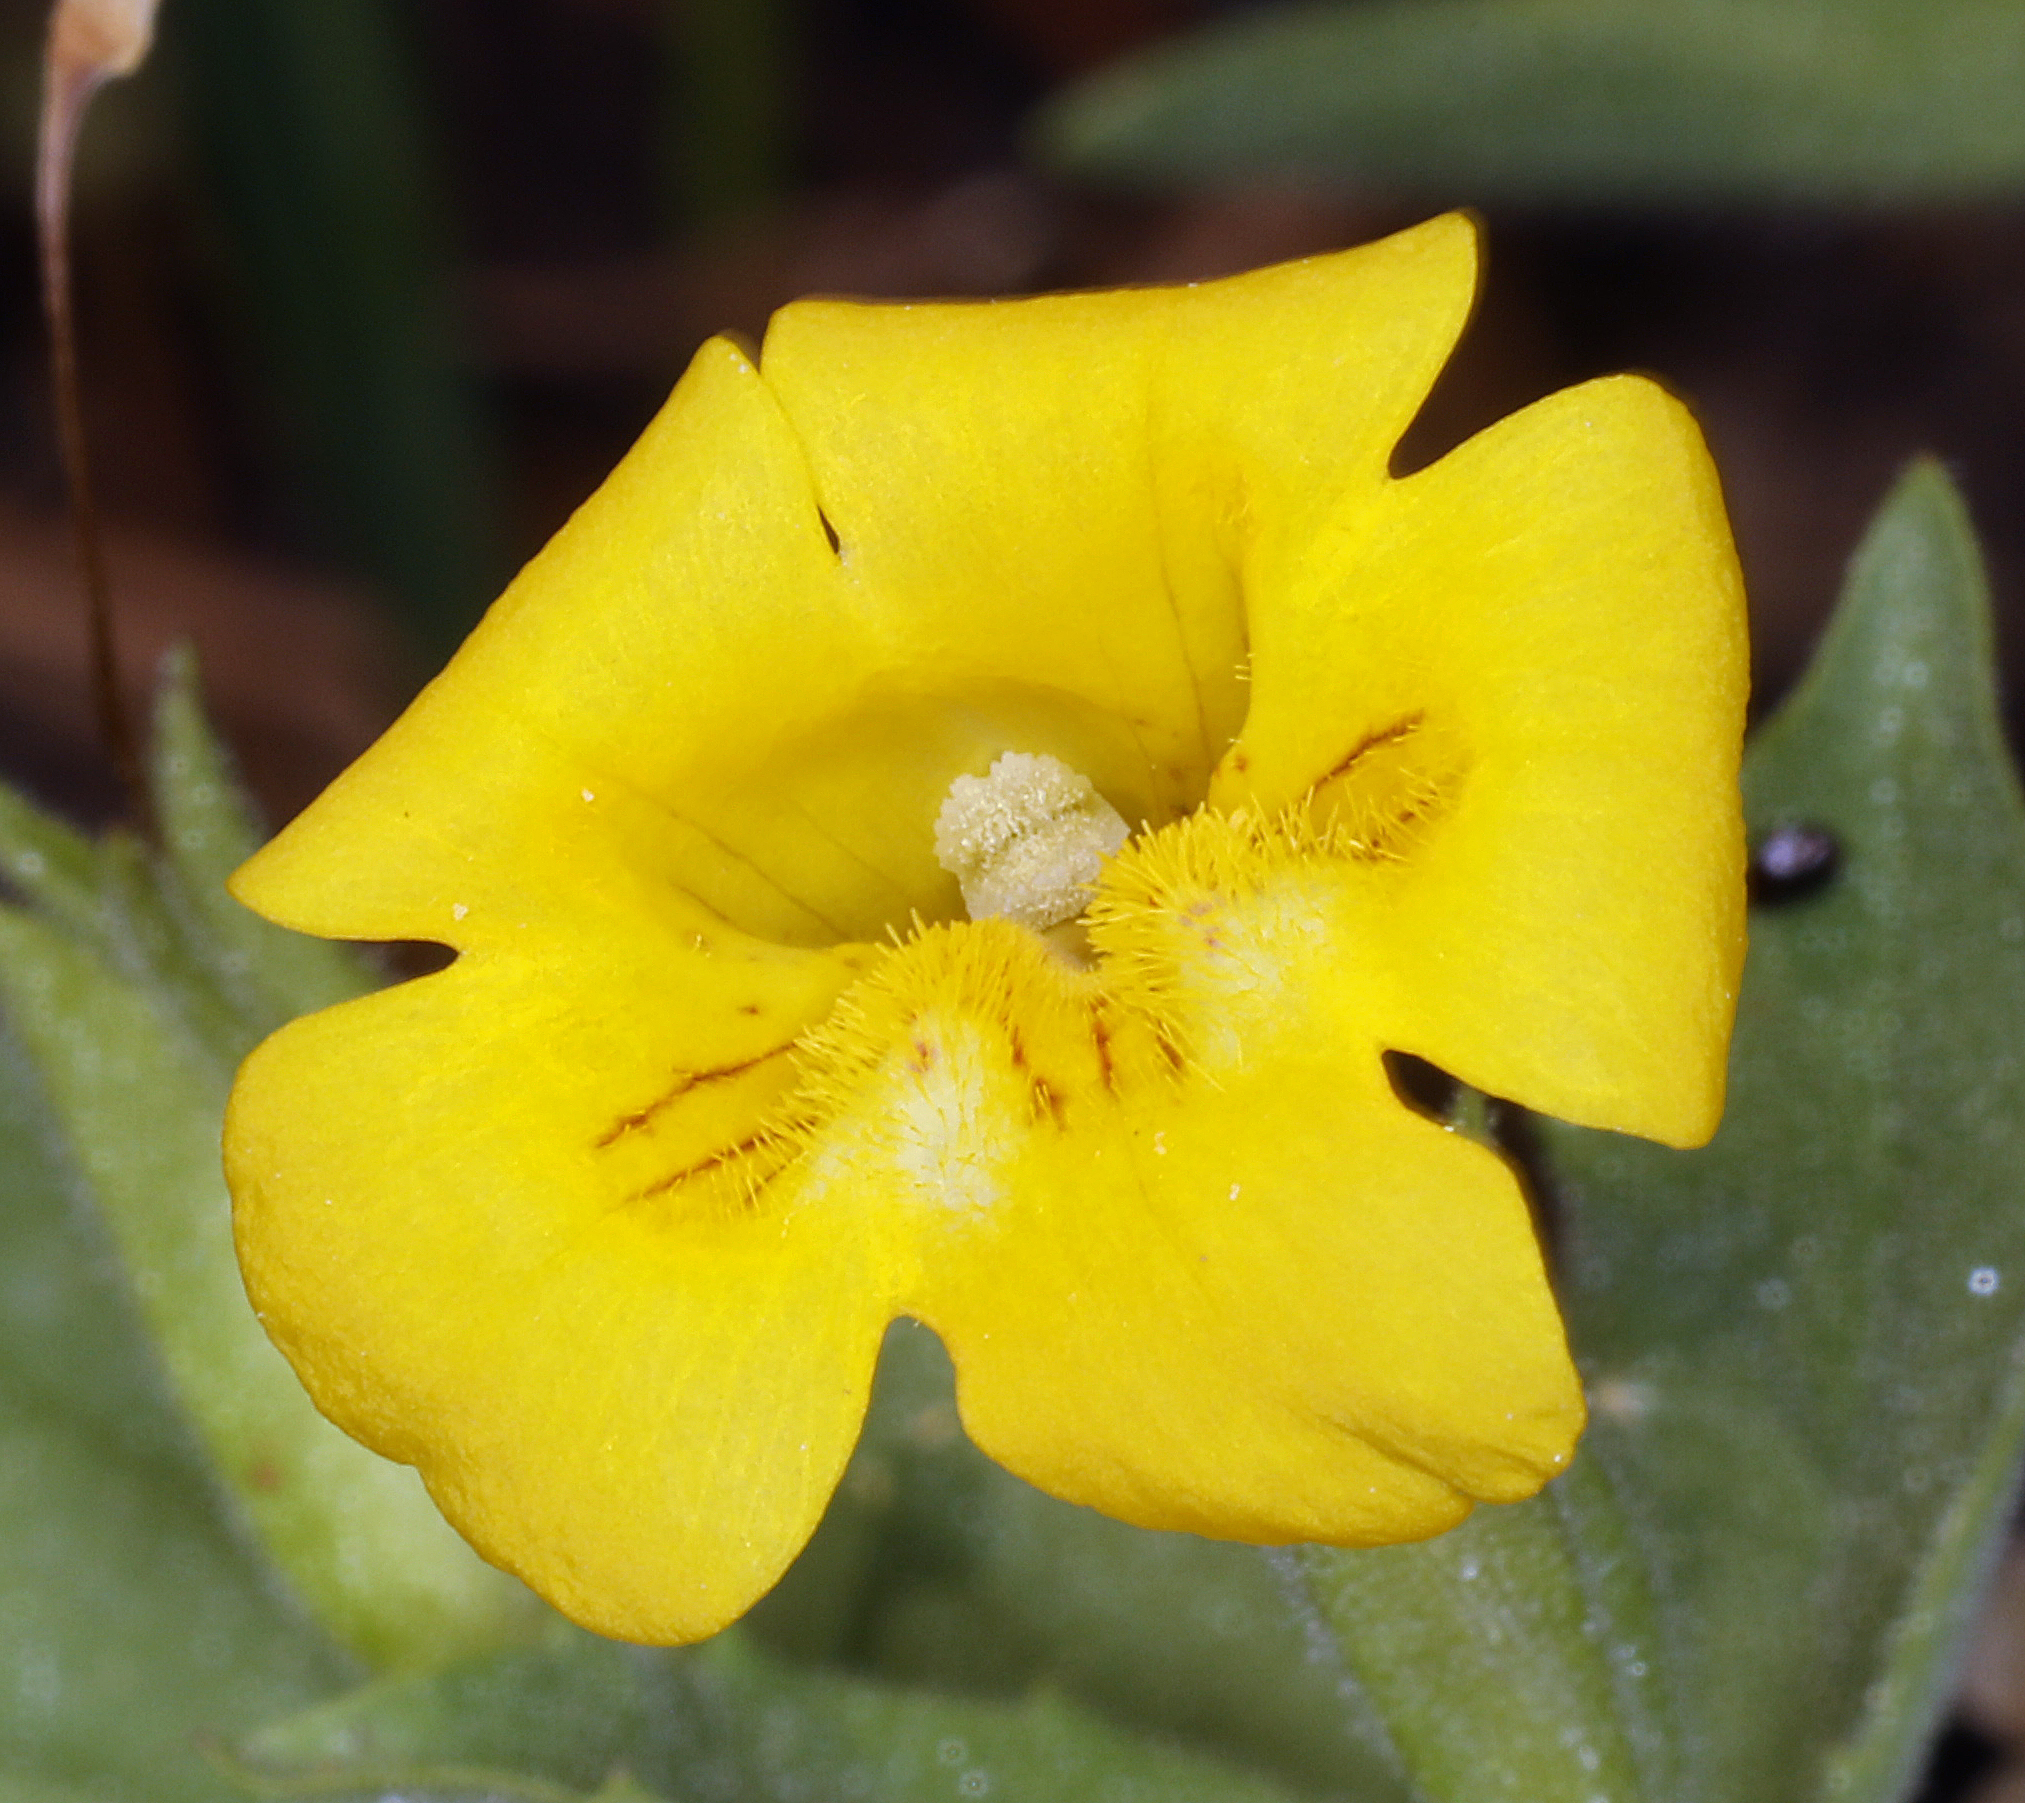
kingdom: Plantae
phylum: Tracheophyta
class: Magnoliopsida
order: Lamiales
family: Phrymaceae
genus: Erythranthe
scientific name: Erythranthe tilingii
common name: Subalpine monkey-flower
